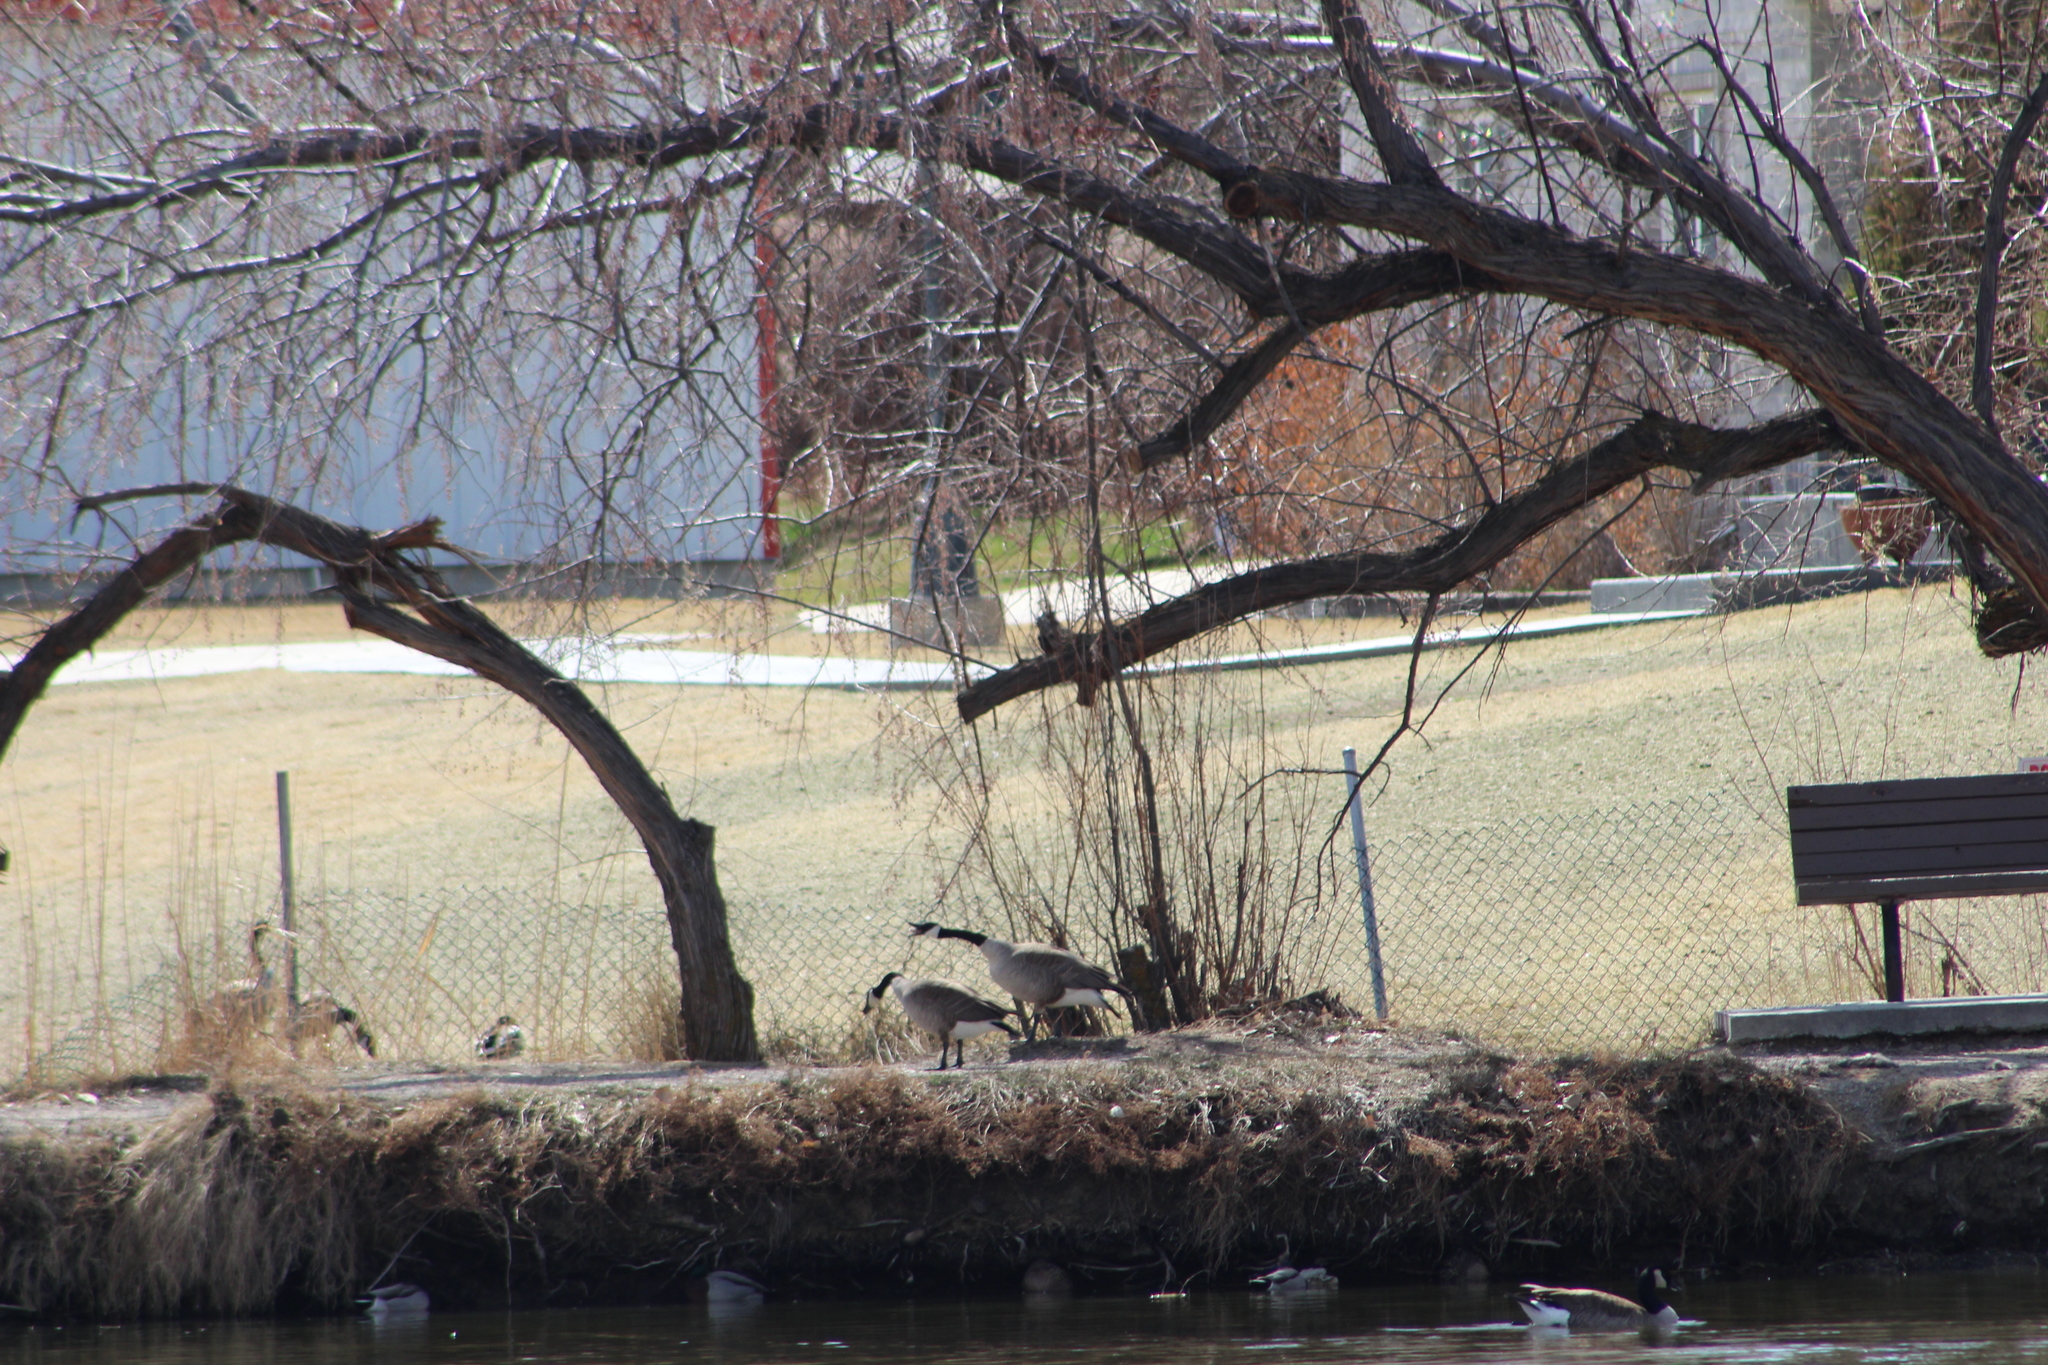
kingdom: Animalia
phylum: Chordata
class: Aves
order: Anseriformes
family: Anatidae
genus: Branta
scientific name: Branta canadensis
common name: Canada goose
